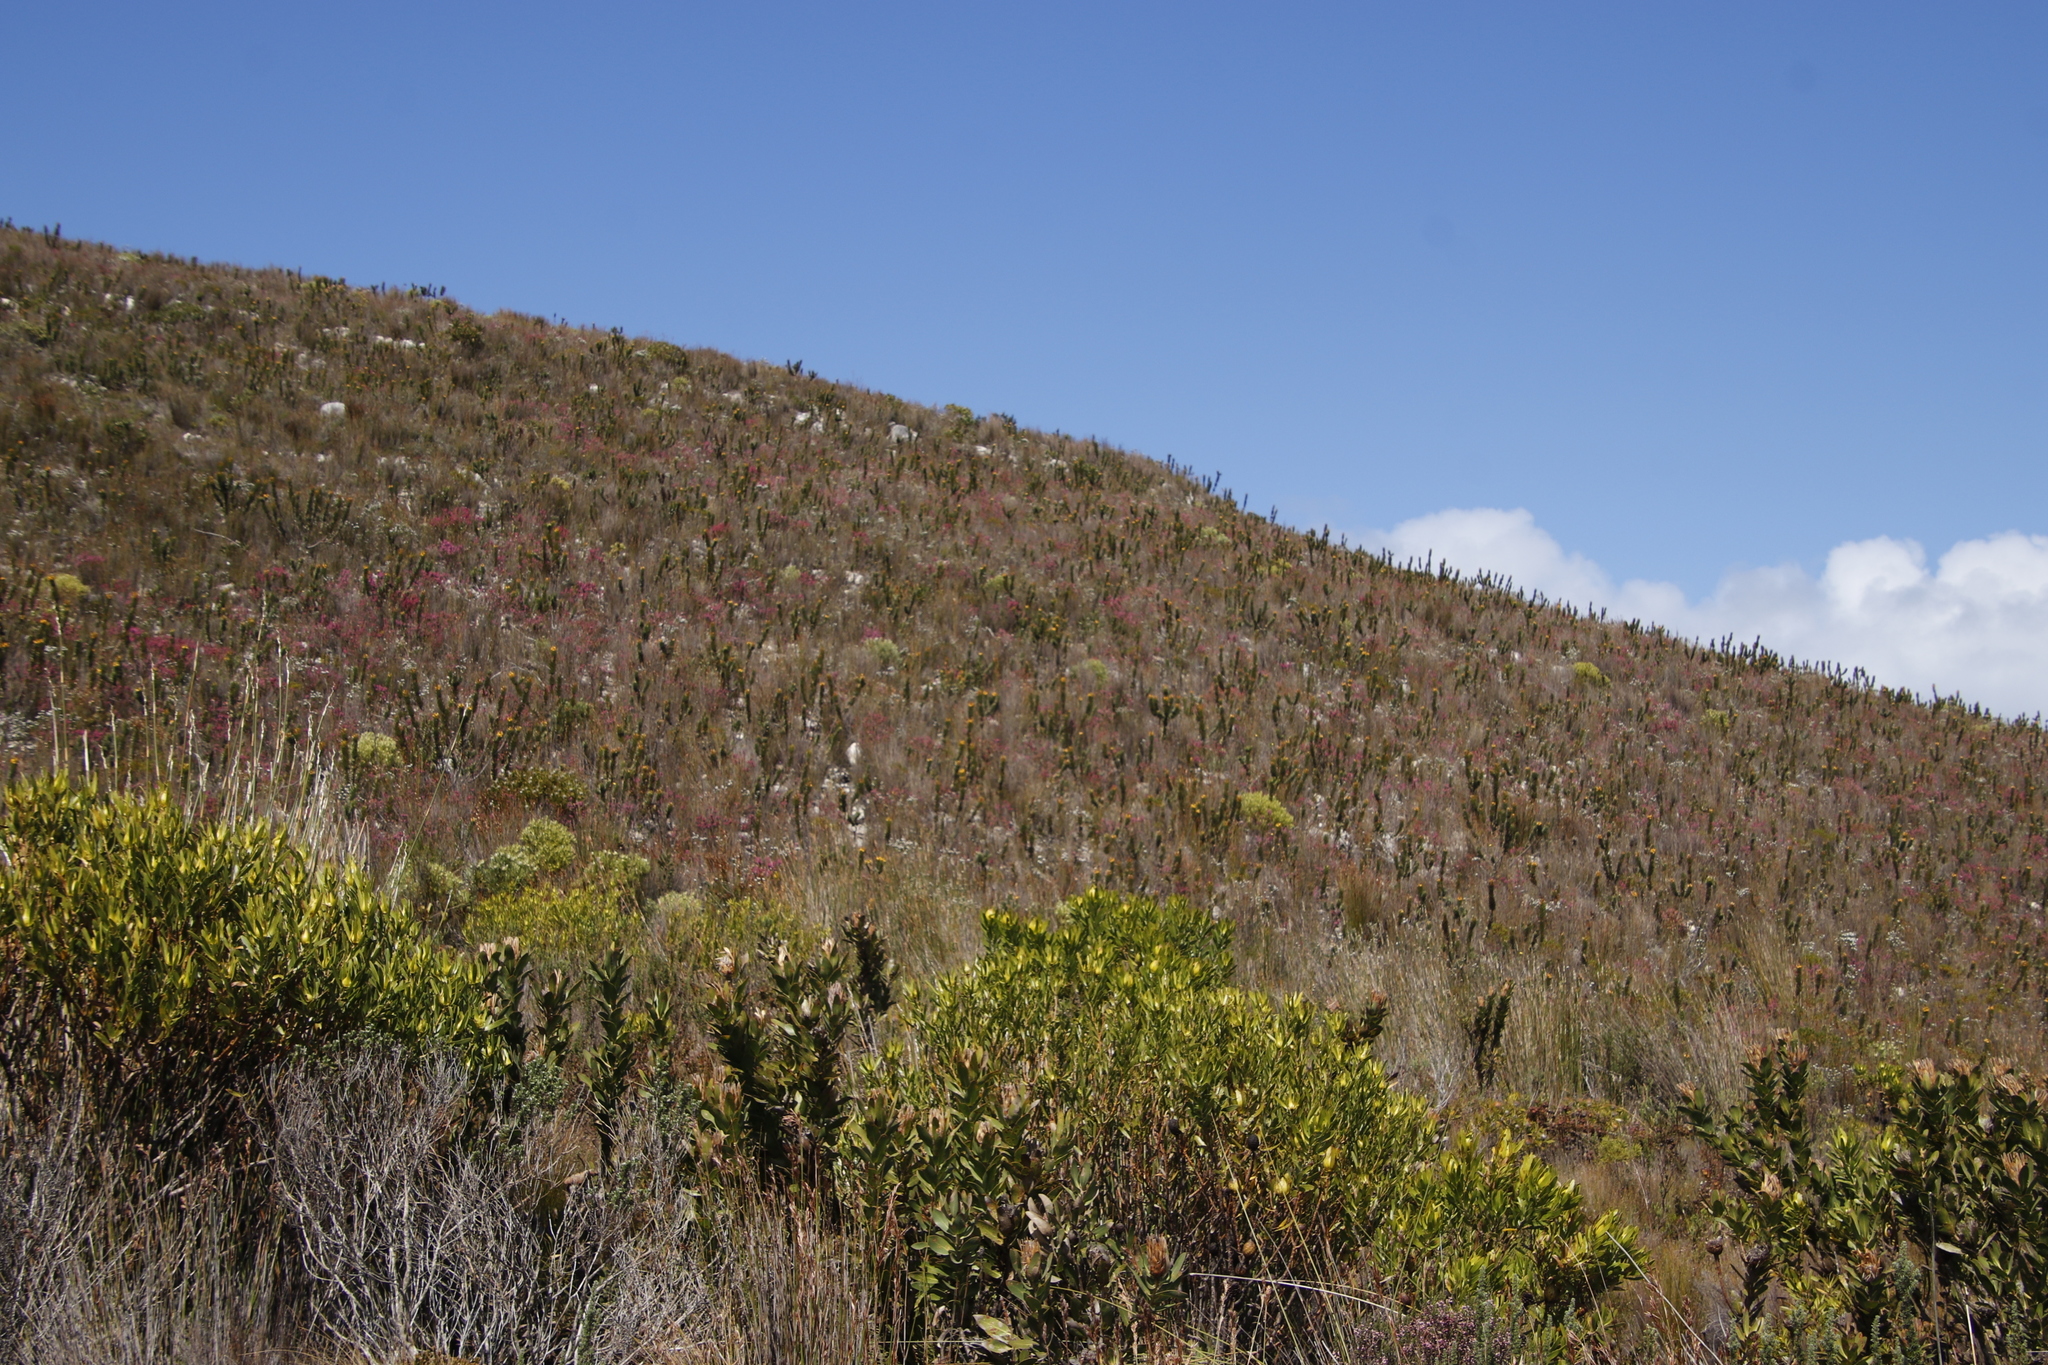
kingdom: Plantae
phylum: Tracheophyta
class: Magnoliopsida
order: Proteales
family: Proteaceae
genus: Mimetes
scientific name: Mimetes saxatilis
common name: Limestone pagoda
